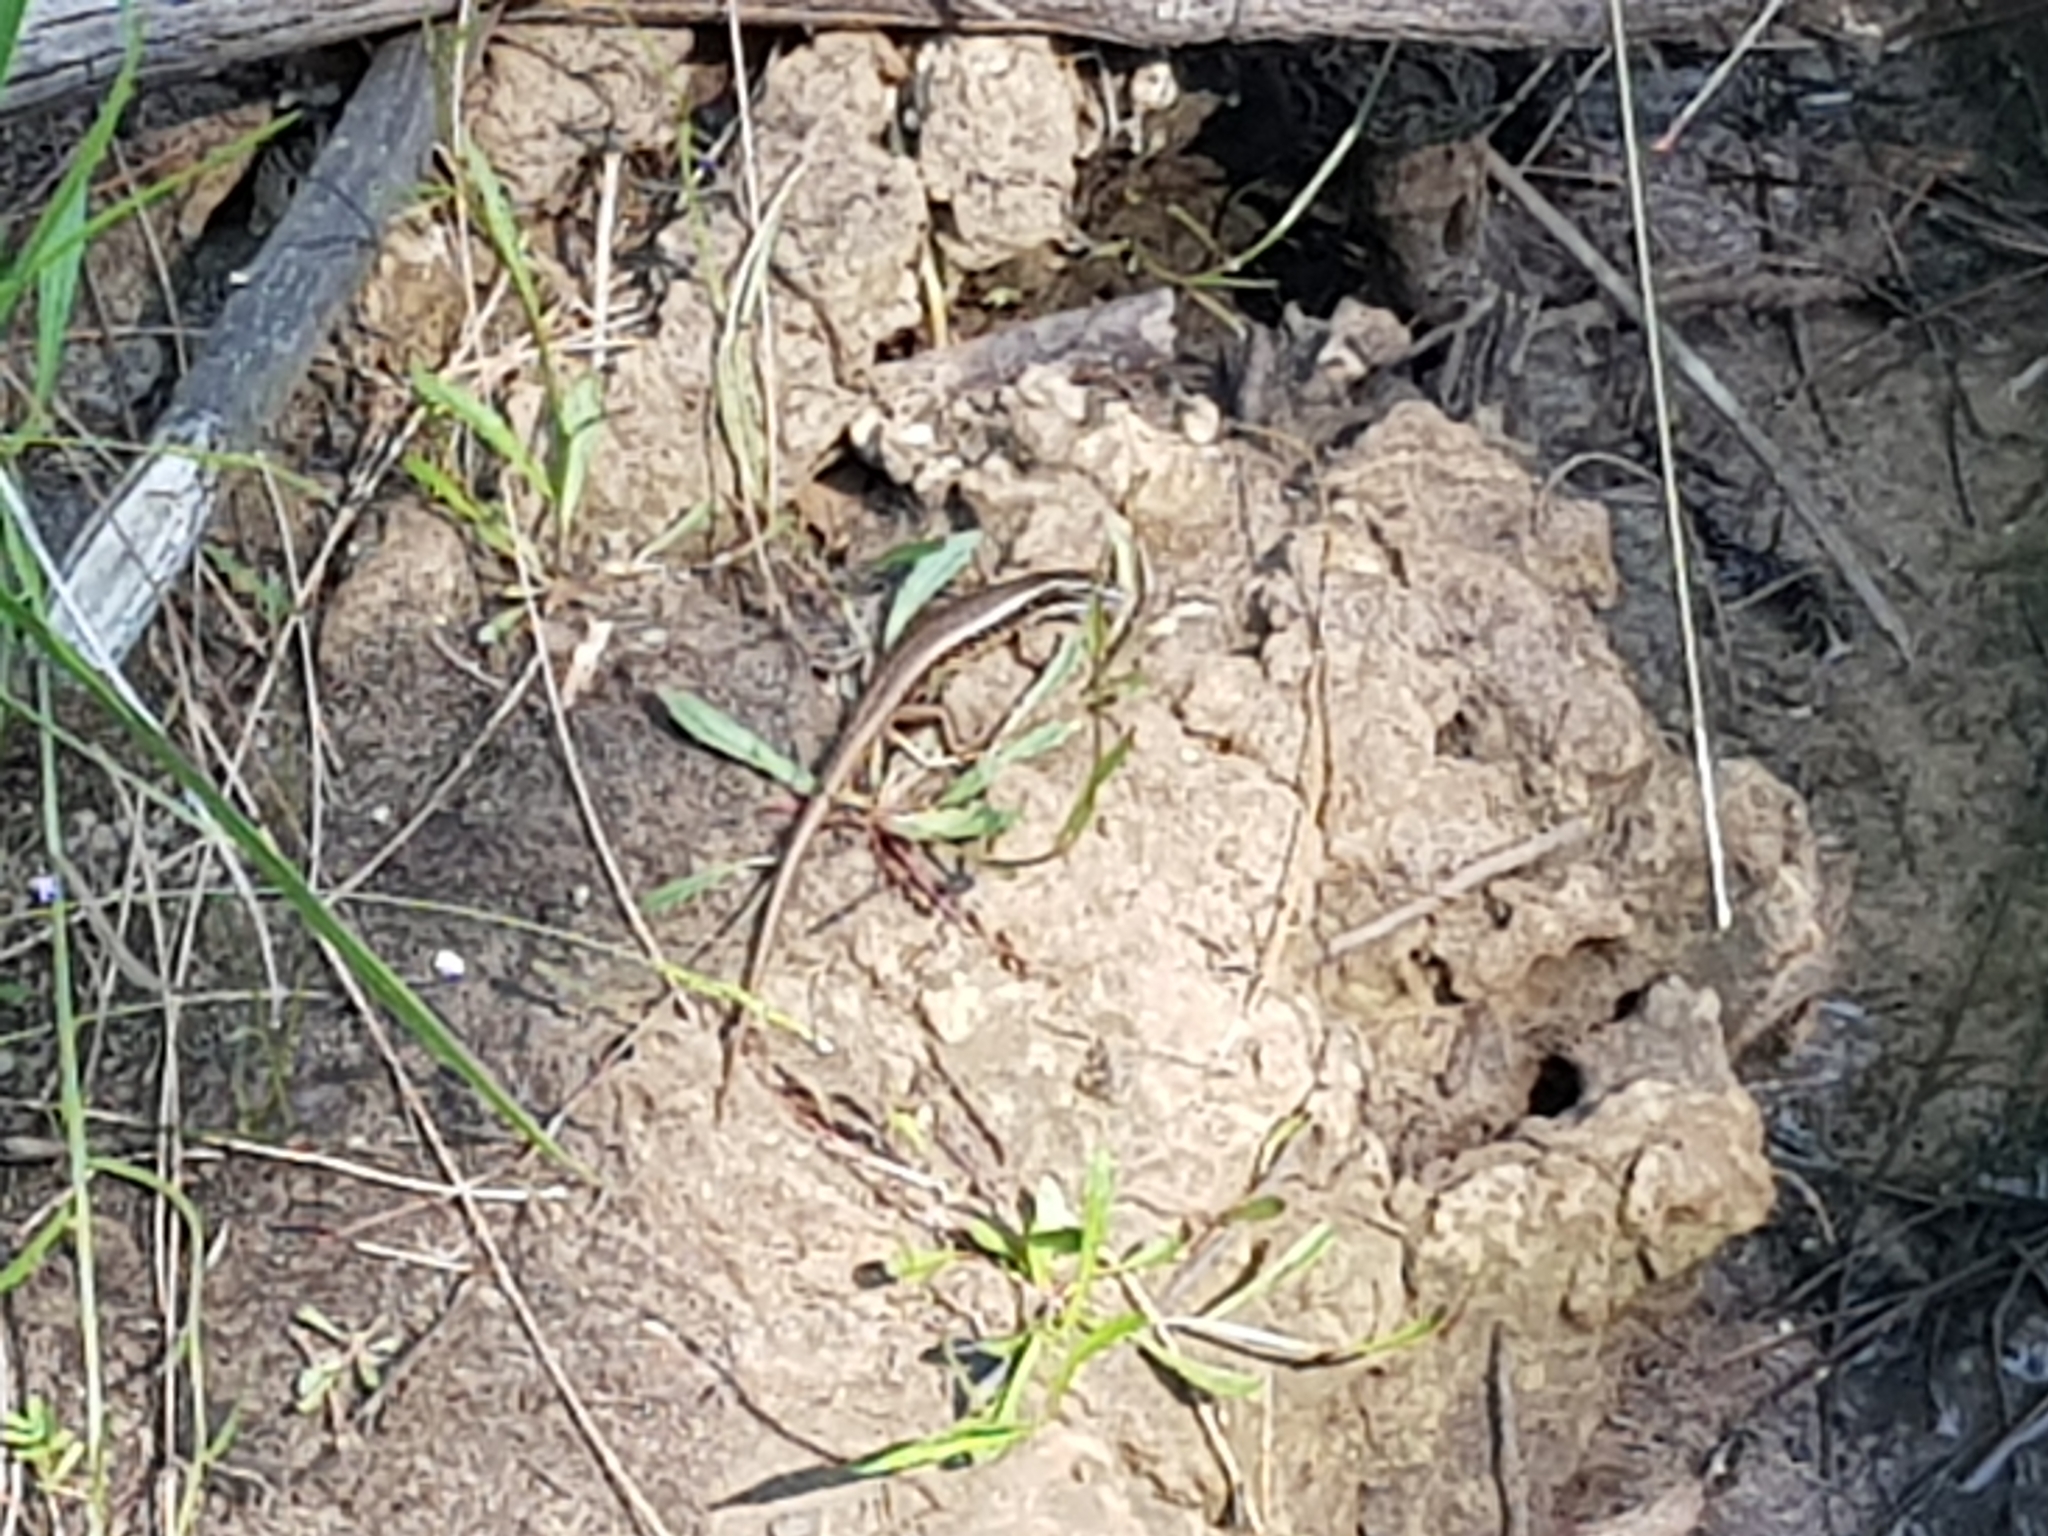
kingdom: Animalia
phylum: Chordata
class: Squamata
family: Scincidae
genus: Eulamprus
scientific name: Eulamprus quoyii
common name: Eastern water skink
